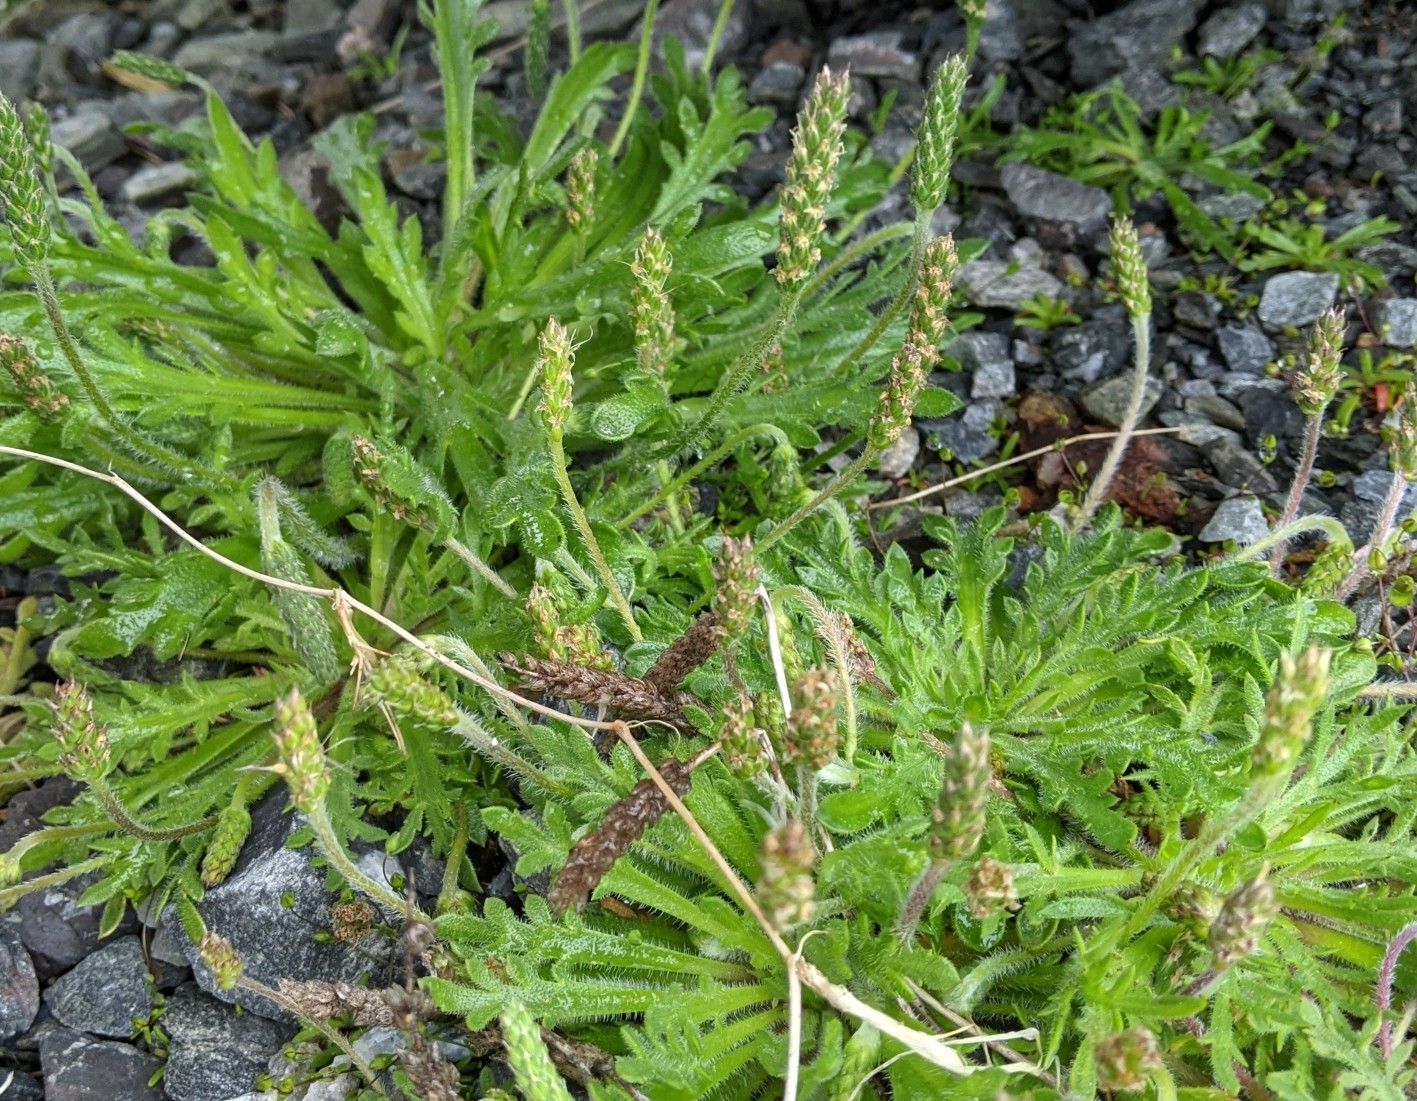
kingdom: Plantae
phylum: Tracheophyta
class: Magnoliopsida
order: Lamiales
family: Plantaginaceae
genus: Plantago
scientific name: Plantago coronopus
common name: Buck's-horn plantain
